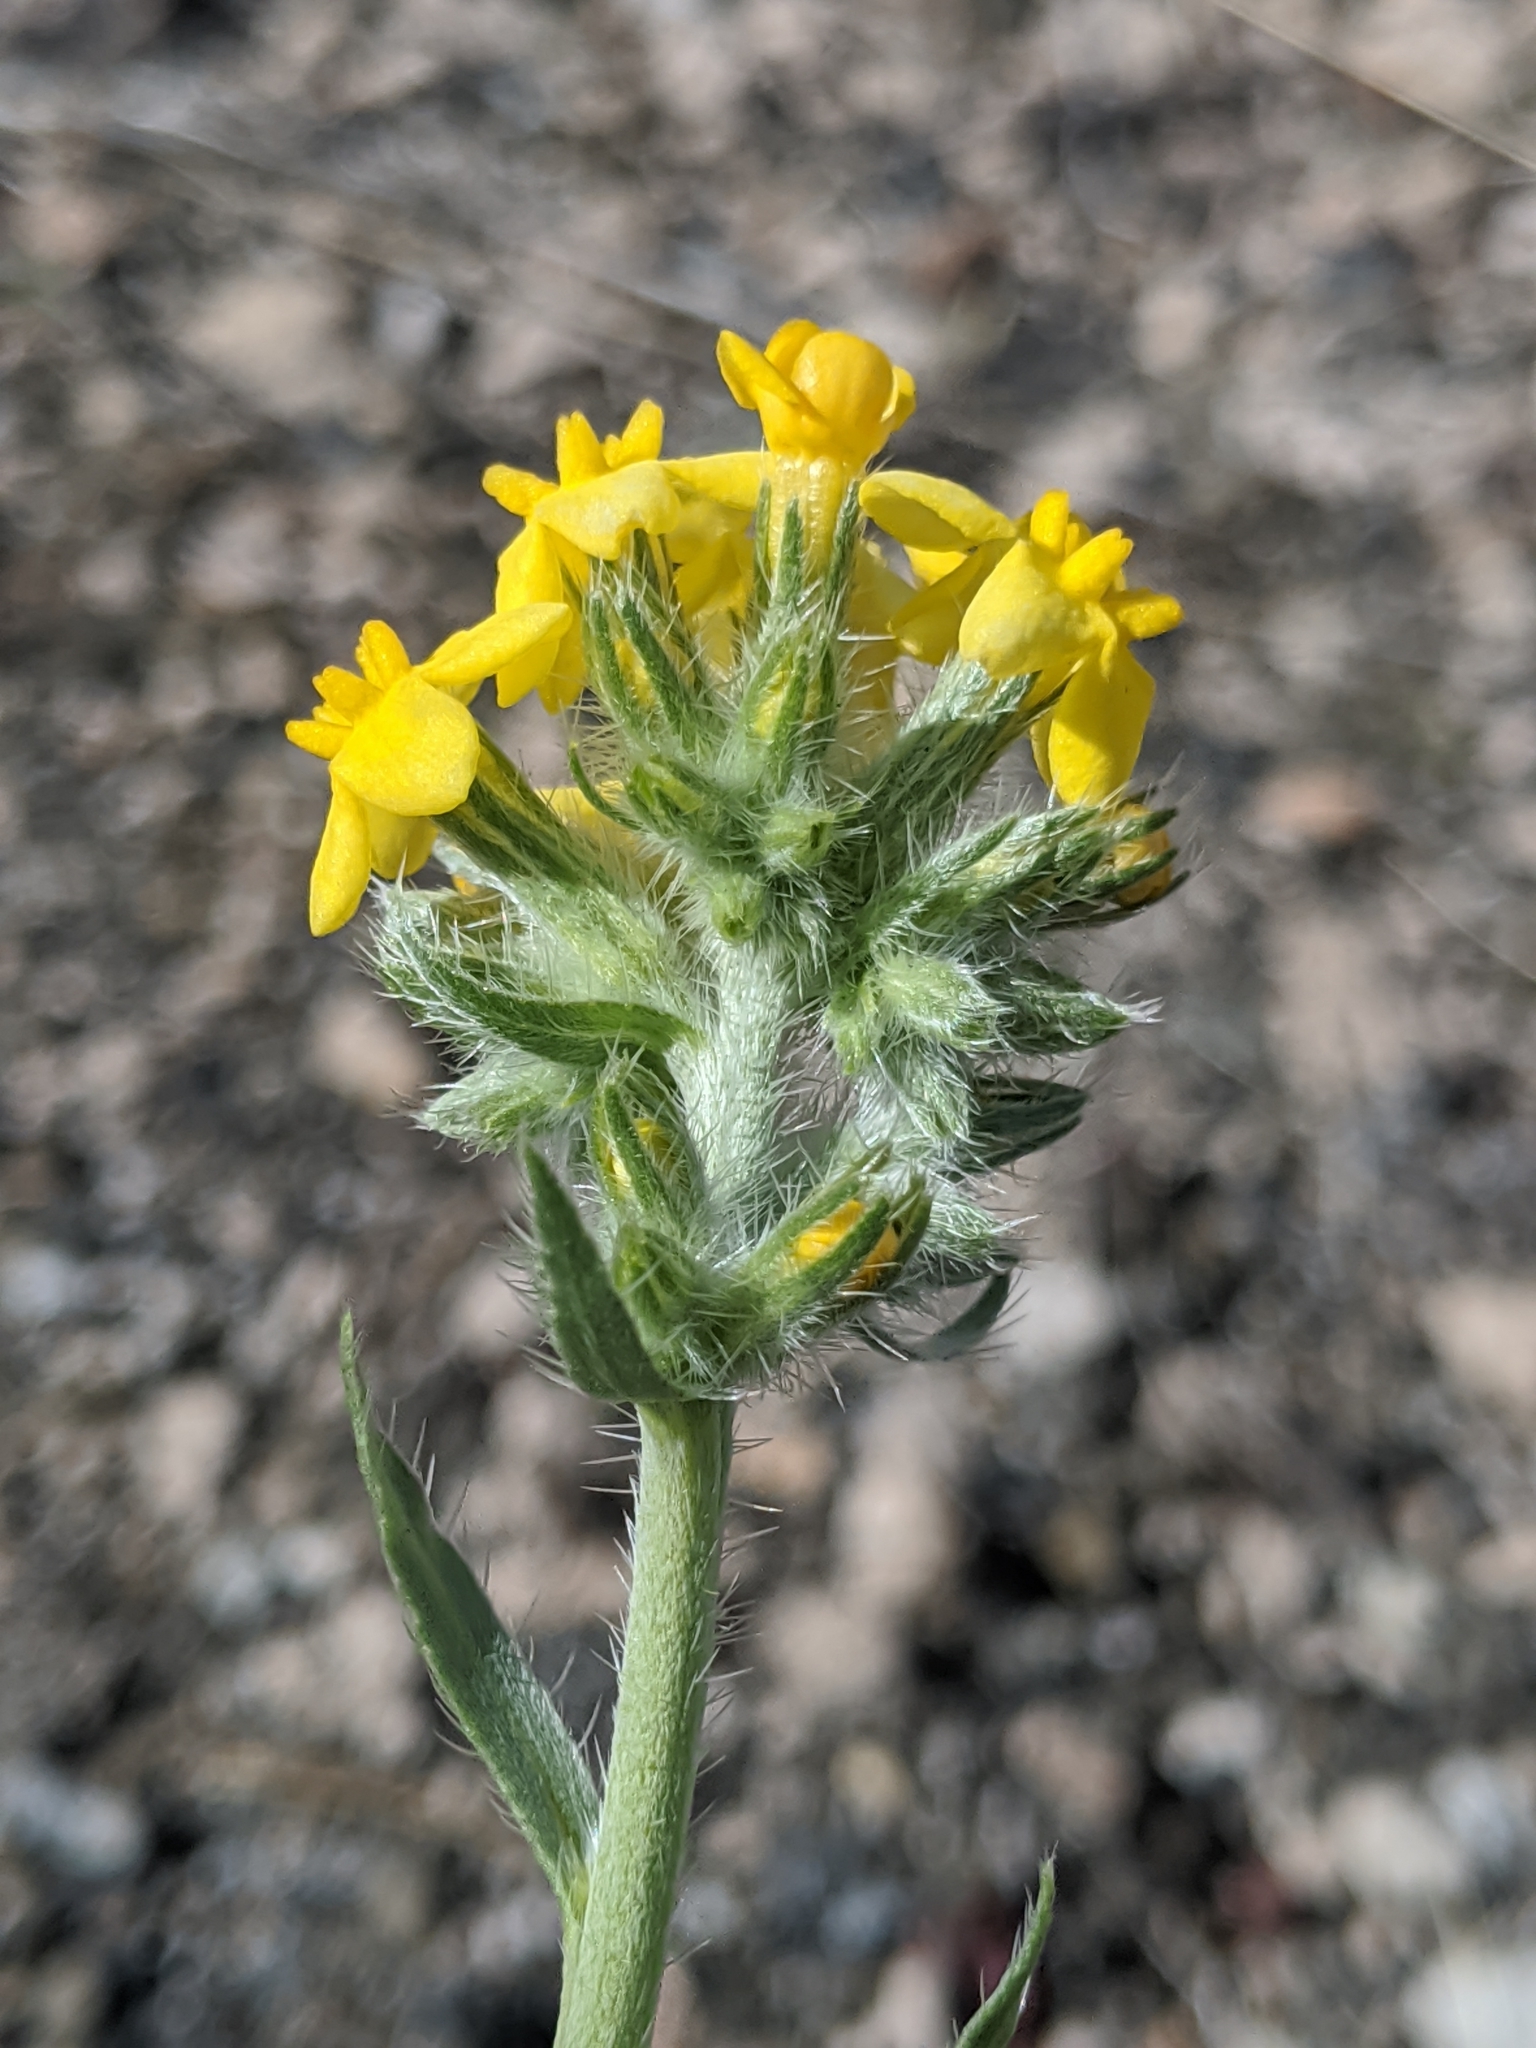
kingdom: Plantae
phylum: Tracheophyta
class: Magnoliopsida
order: Boraginales
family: Boraginaceae
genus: Oreocarya
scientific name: Oreocarya confertiflora
